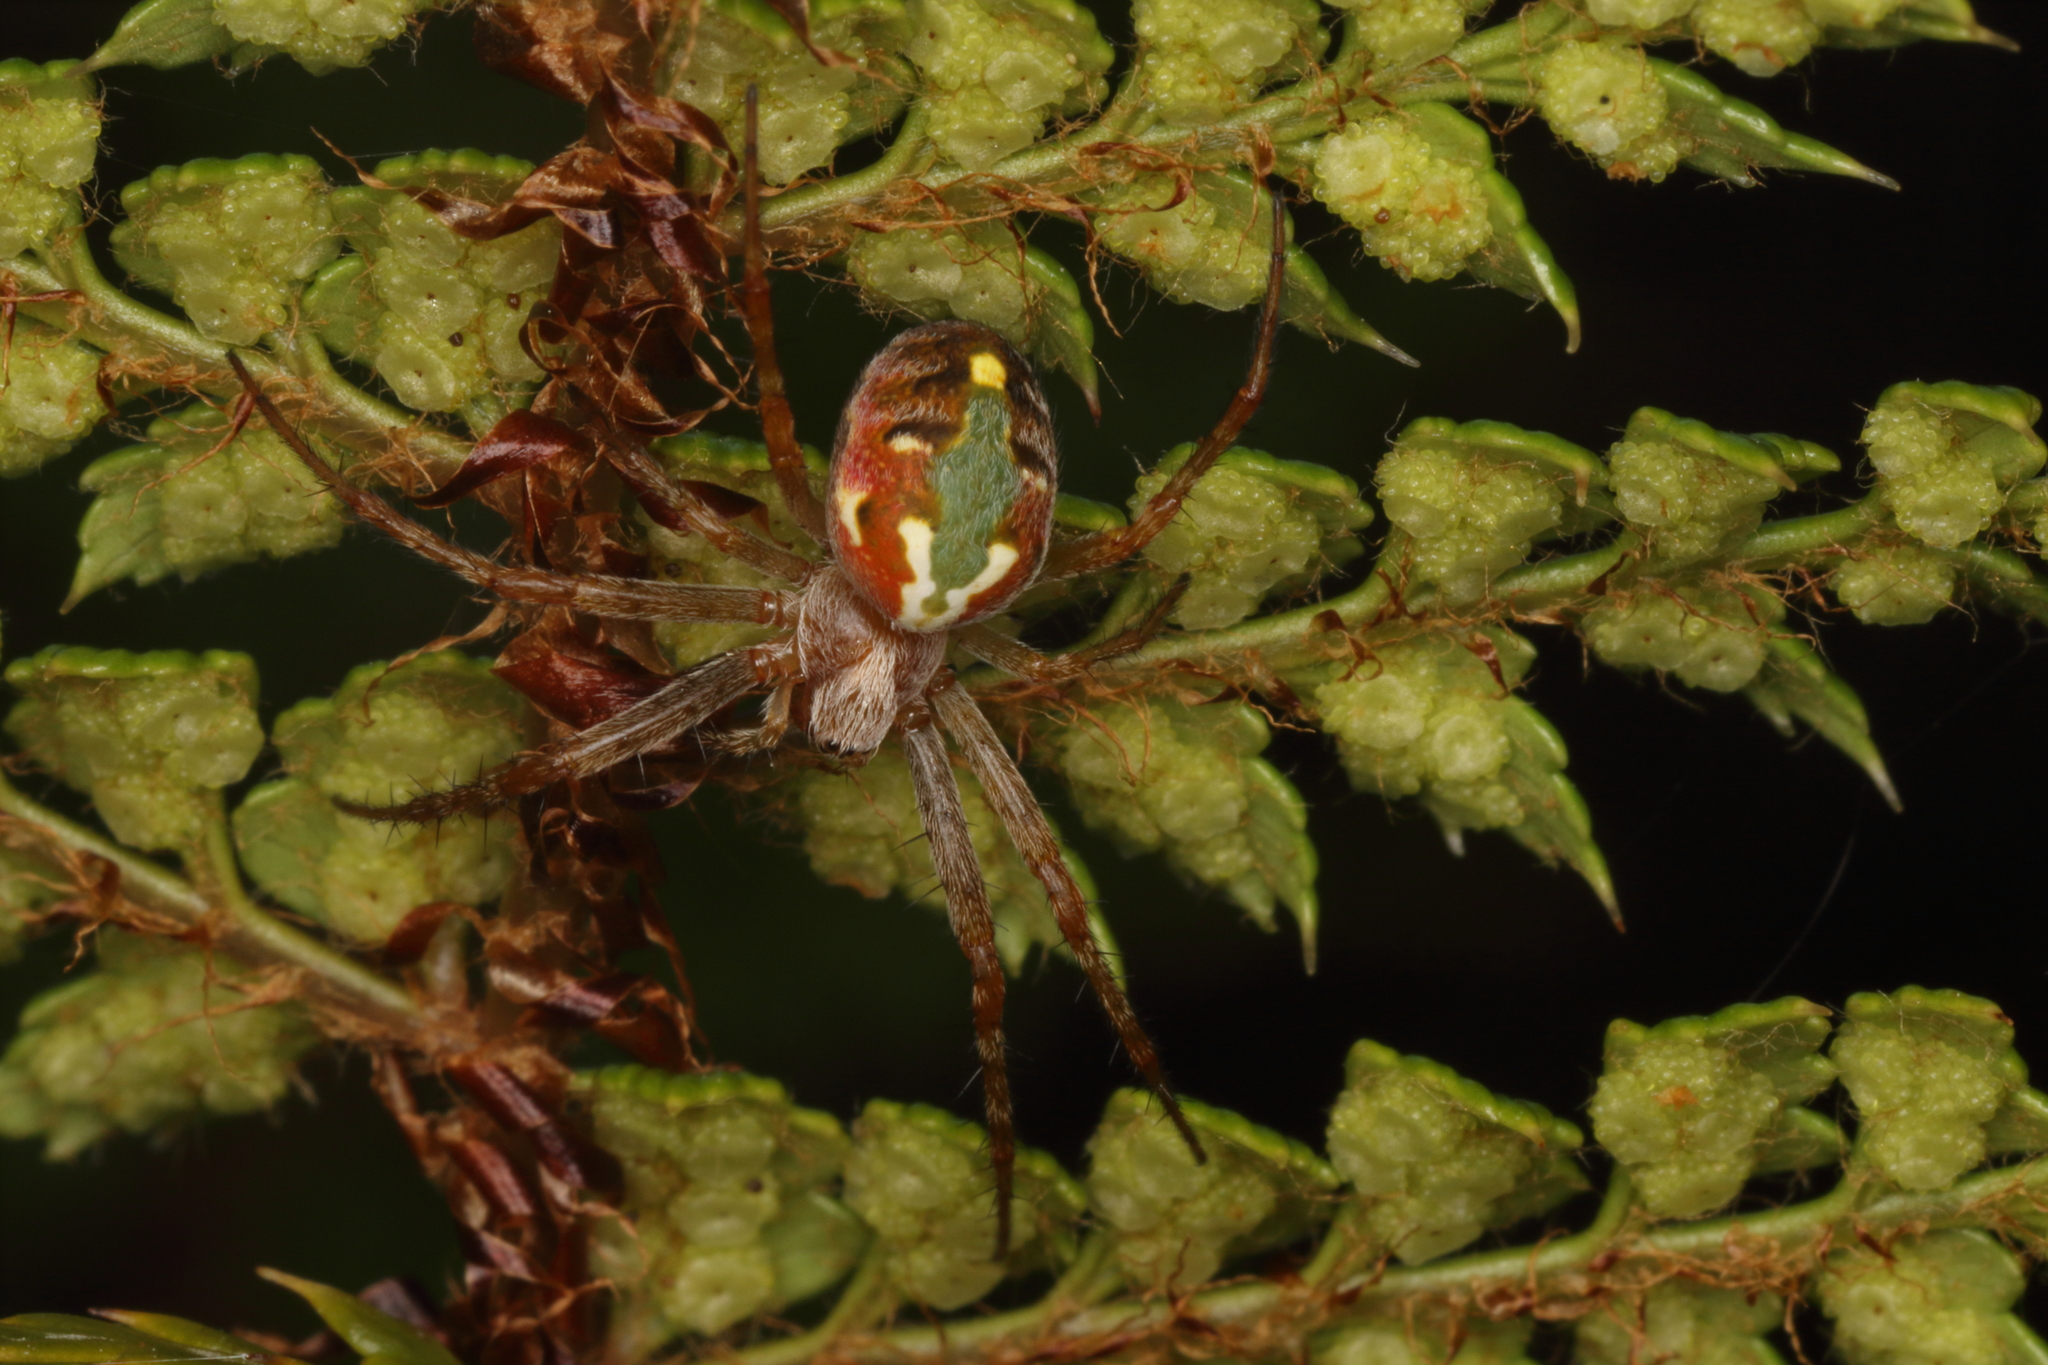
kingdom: Animalia
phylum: Arthropoda
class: Arachnida
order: Araneae
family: Araneidae
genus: Novaranea
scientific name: Novaranea queribunda
